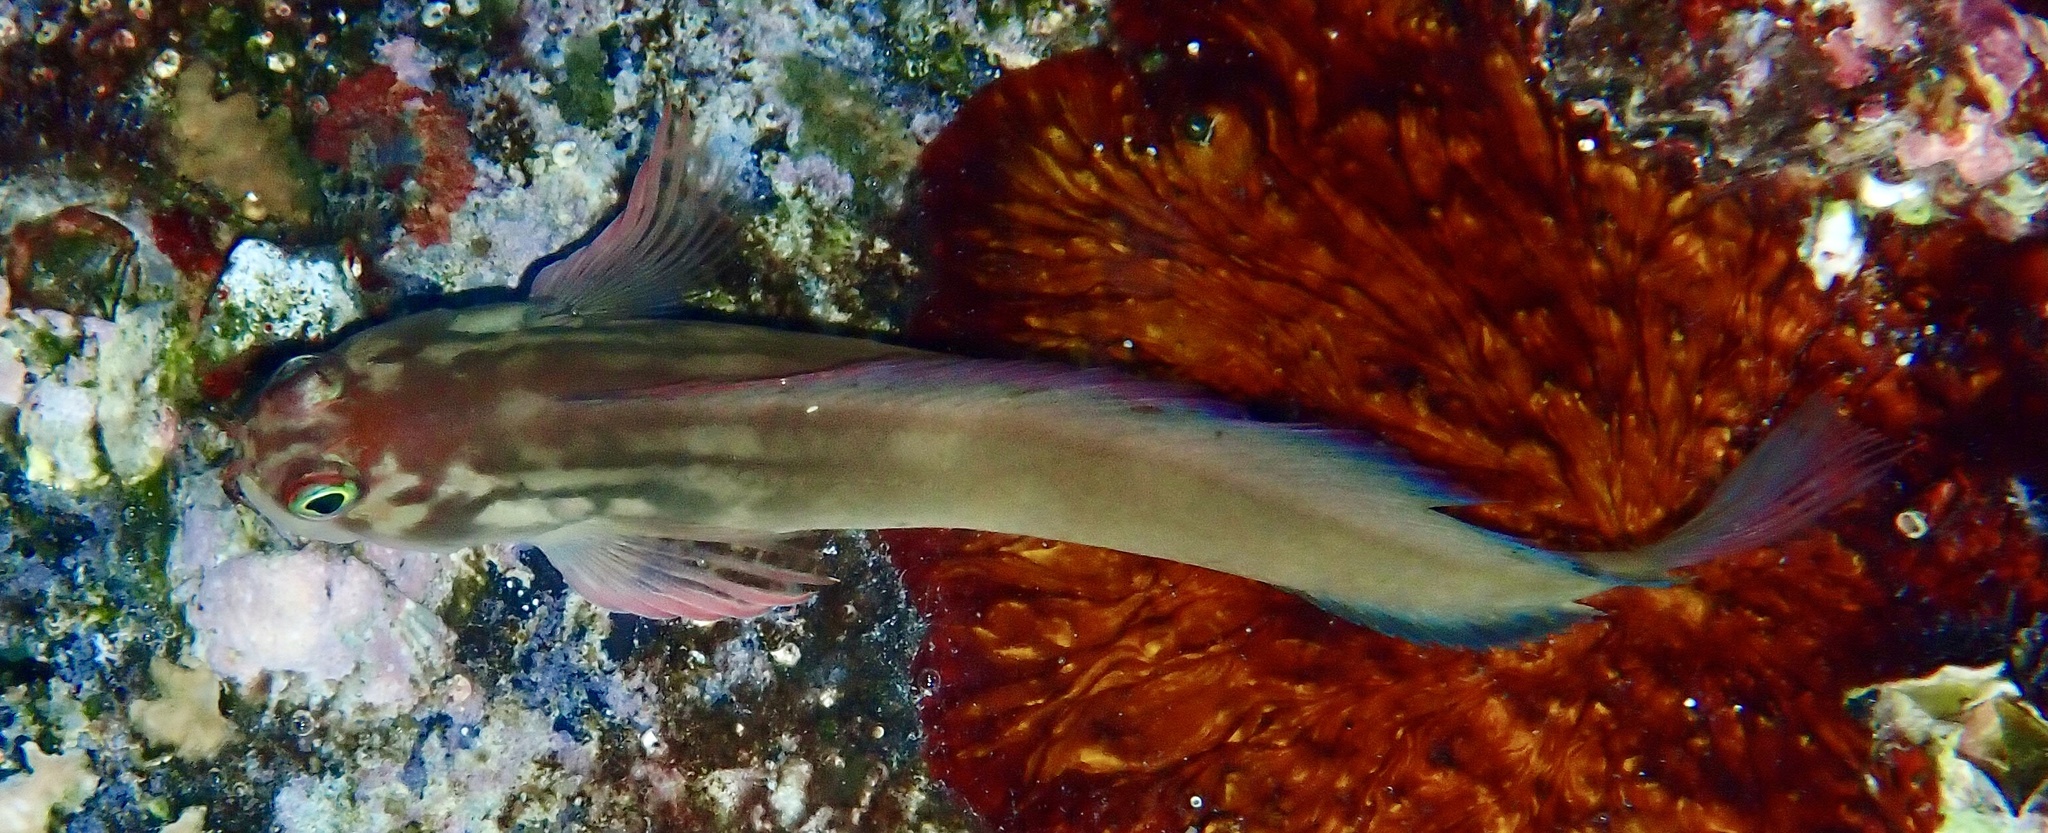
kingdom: Animalia
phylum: Chordata
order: Perciformes
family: Blenniidae
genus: Ophioblennius
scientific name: Ophioblennius macclurei
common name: Redlip blenny
